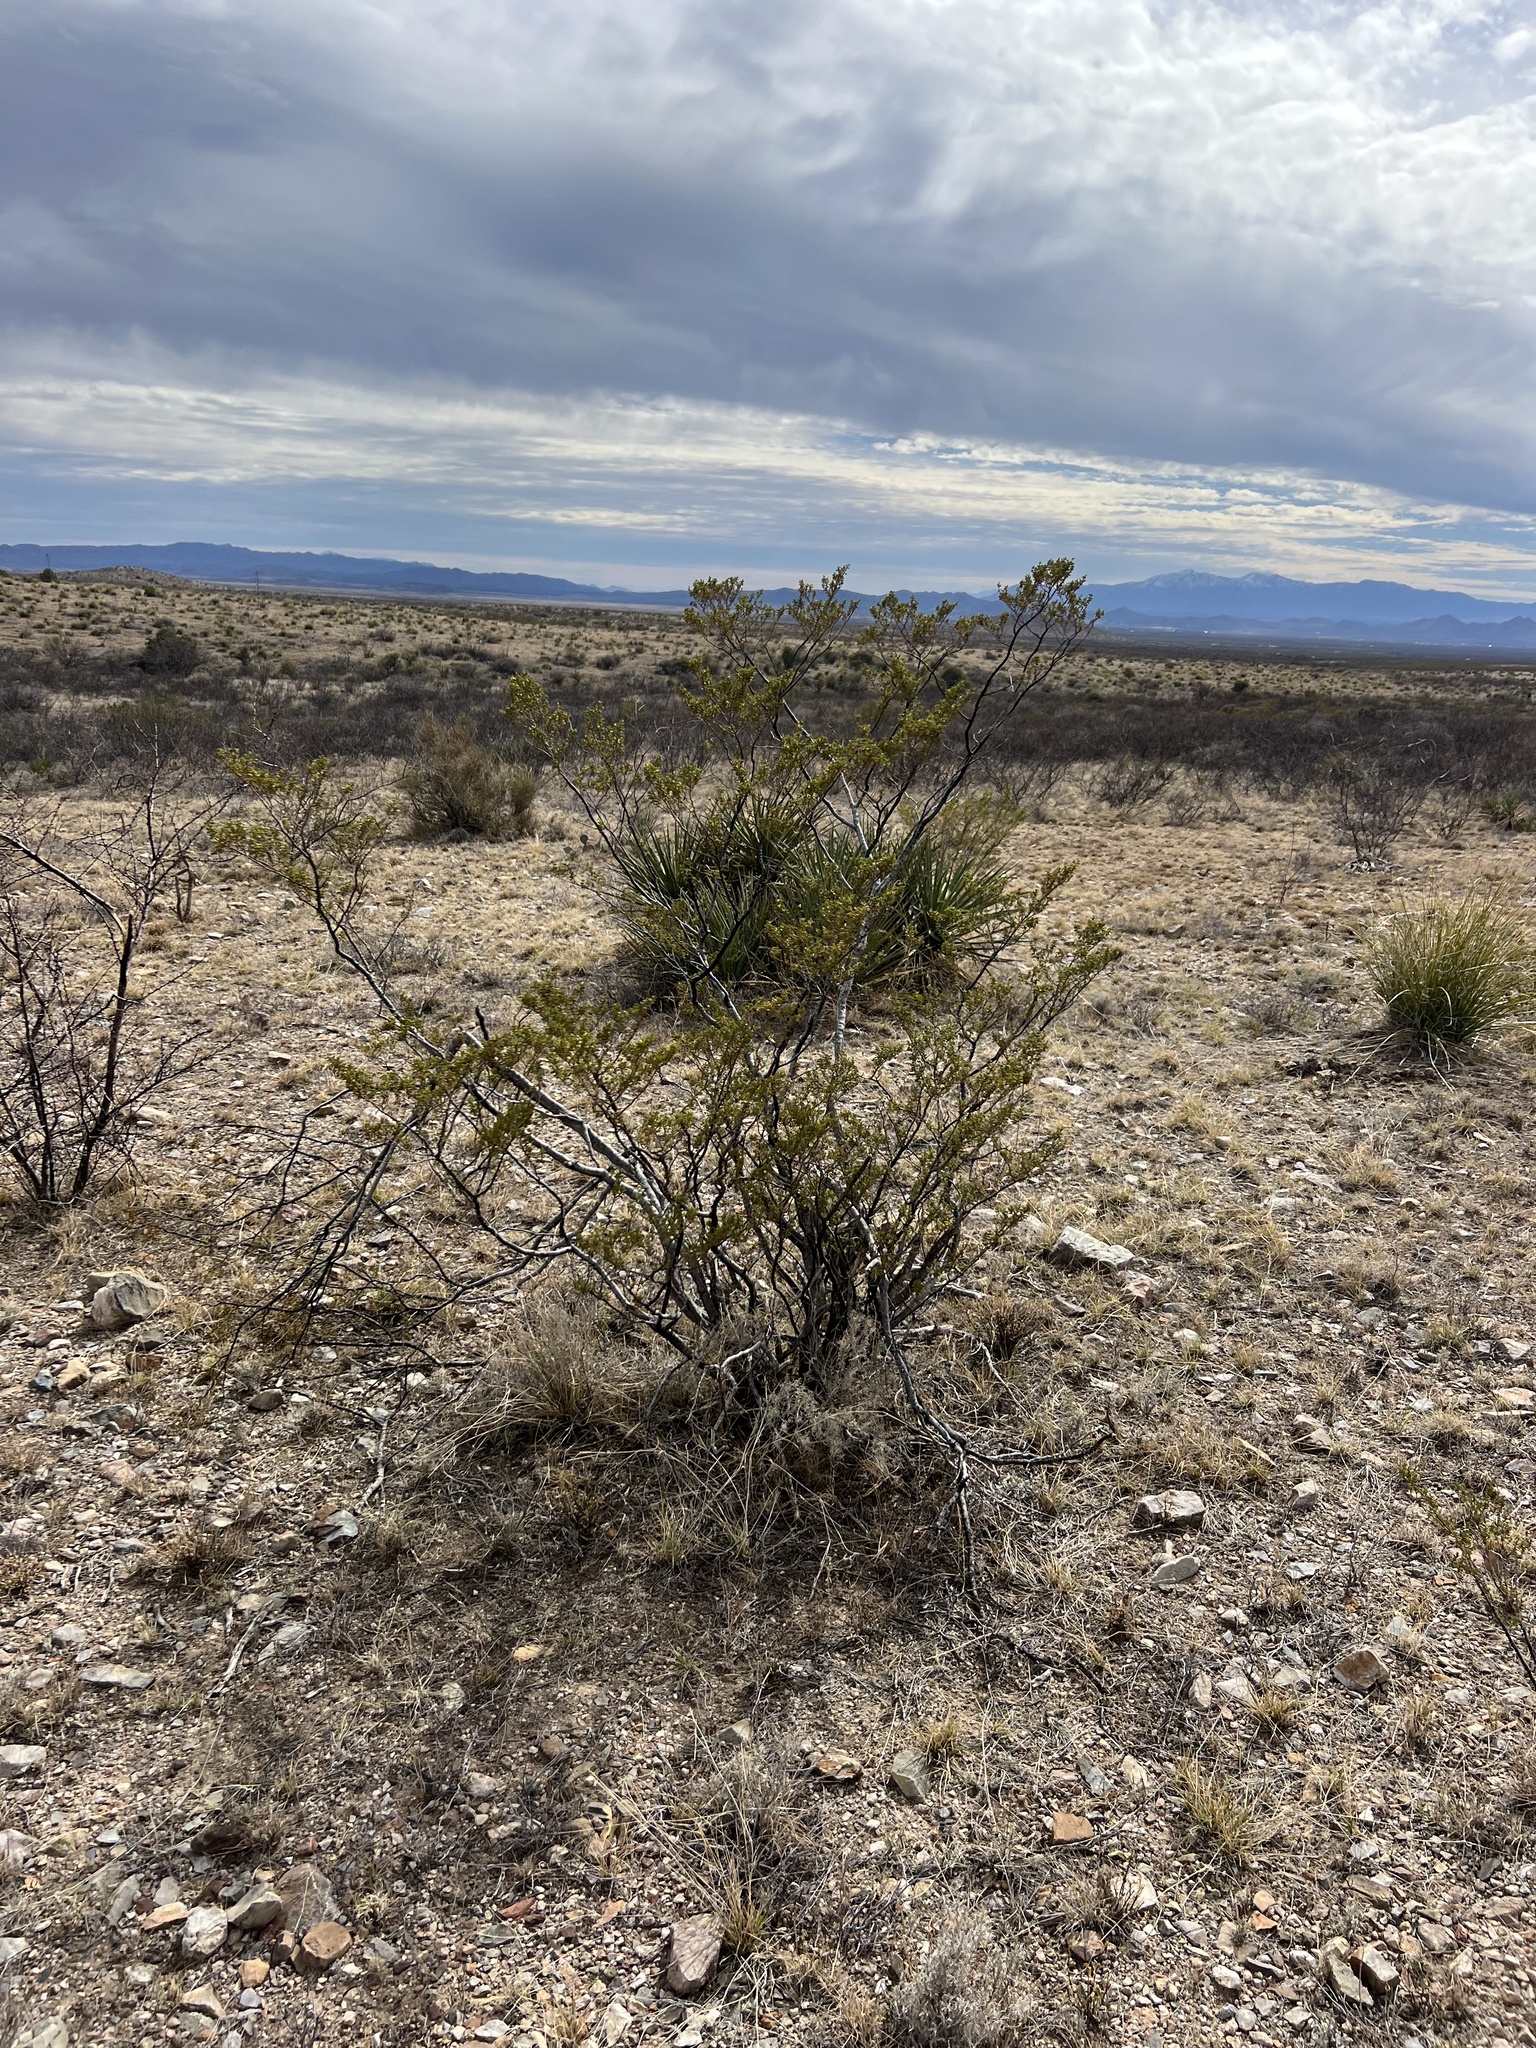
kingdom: Plantae
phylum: Tracheophyta
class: Magnoliopsida
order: Zygophyllales
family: Zygophyllaceae
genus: Larrea
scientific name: Larrea tridentata
